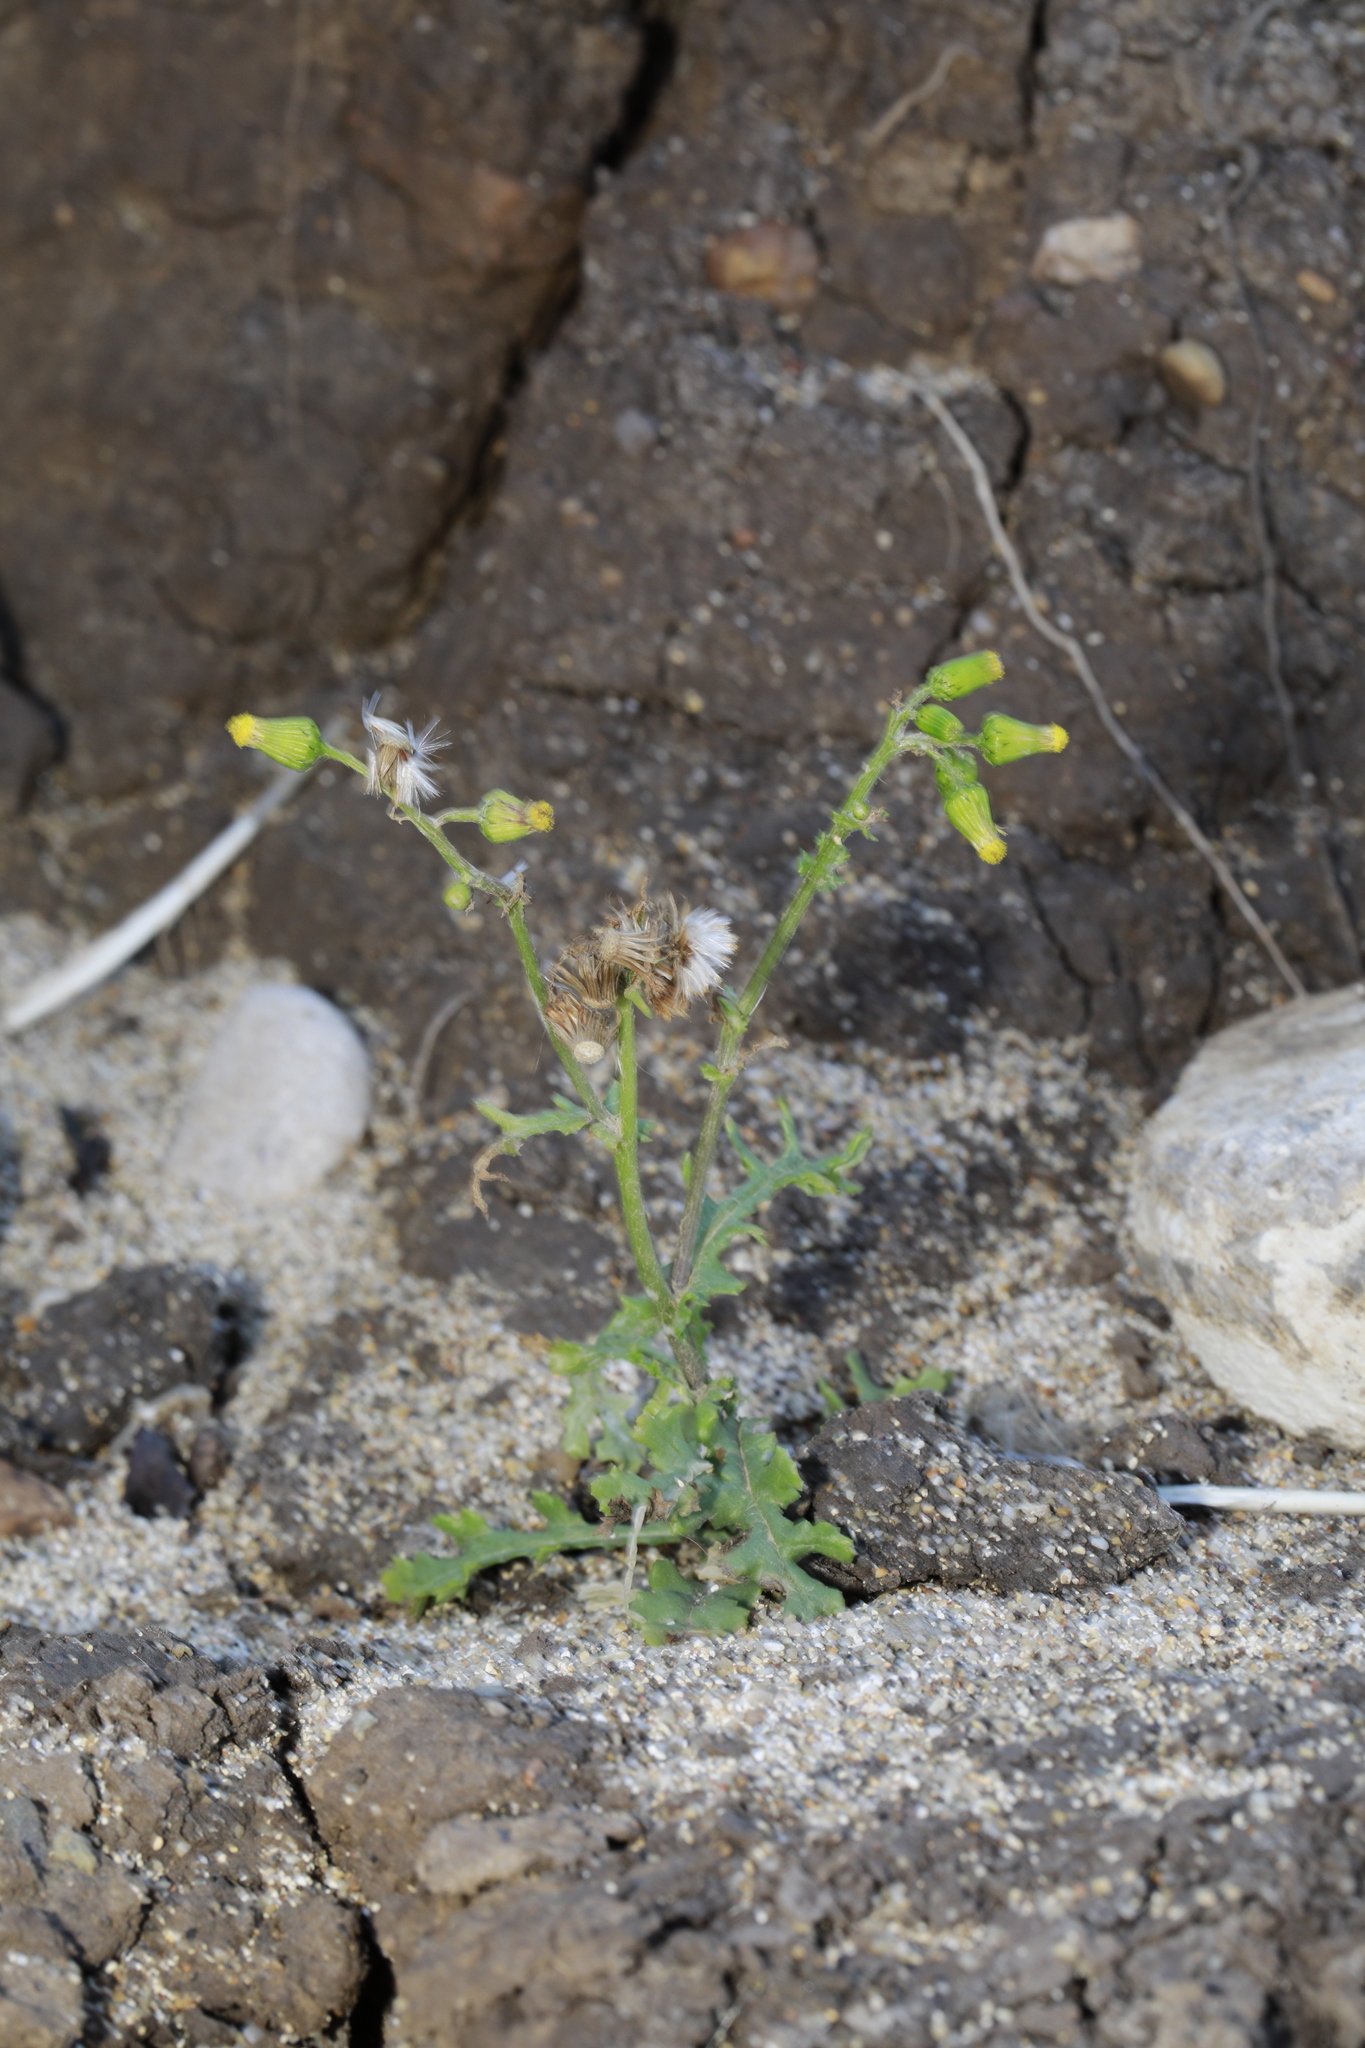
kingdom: Plantae
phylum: Tracheophyta
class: Magnoliopsida
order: Asterales
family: Asteraceae
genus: Senecio
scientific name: Senecio vulgaris
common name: Old-man-in-the-spring
